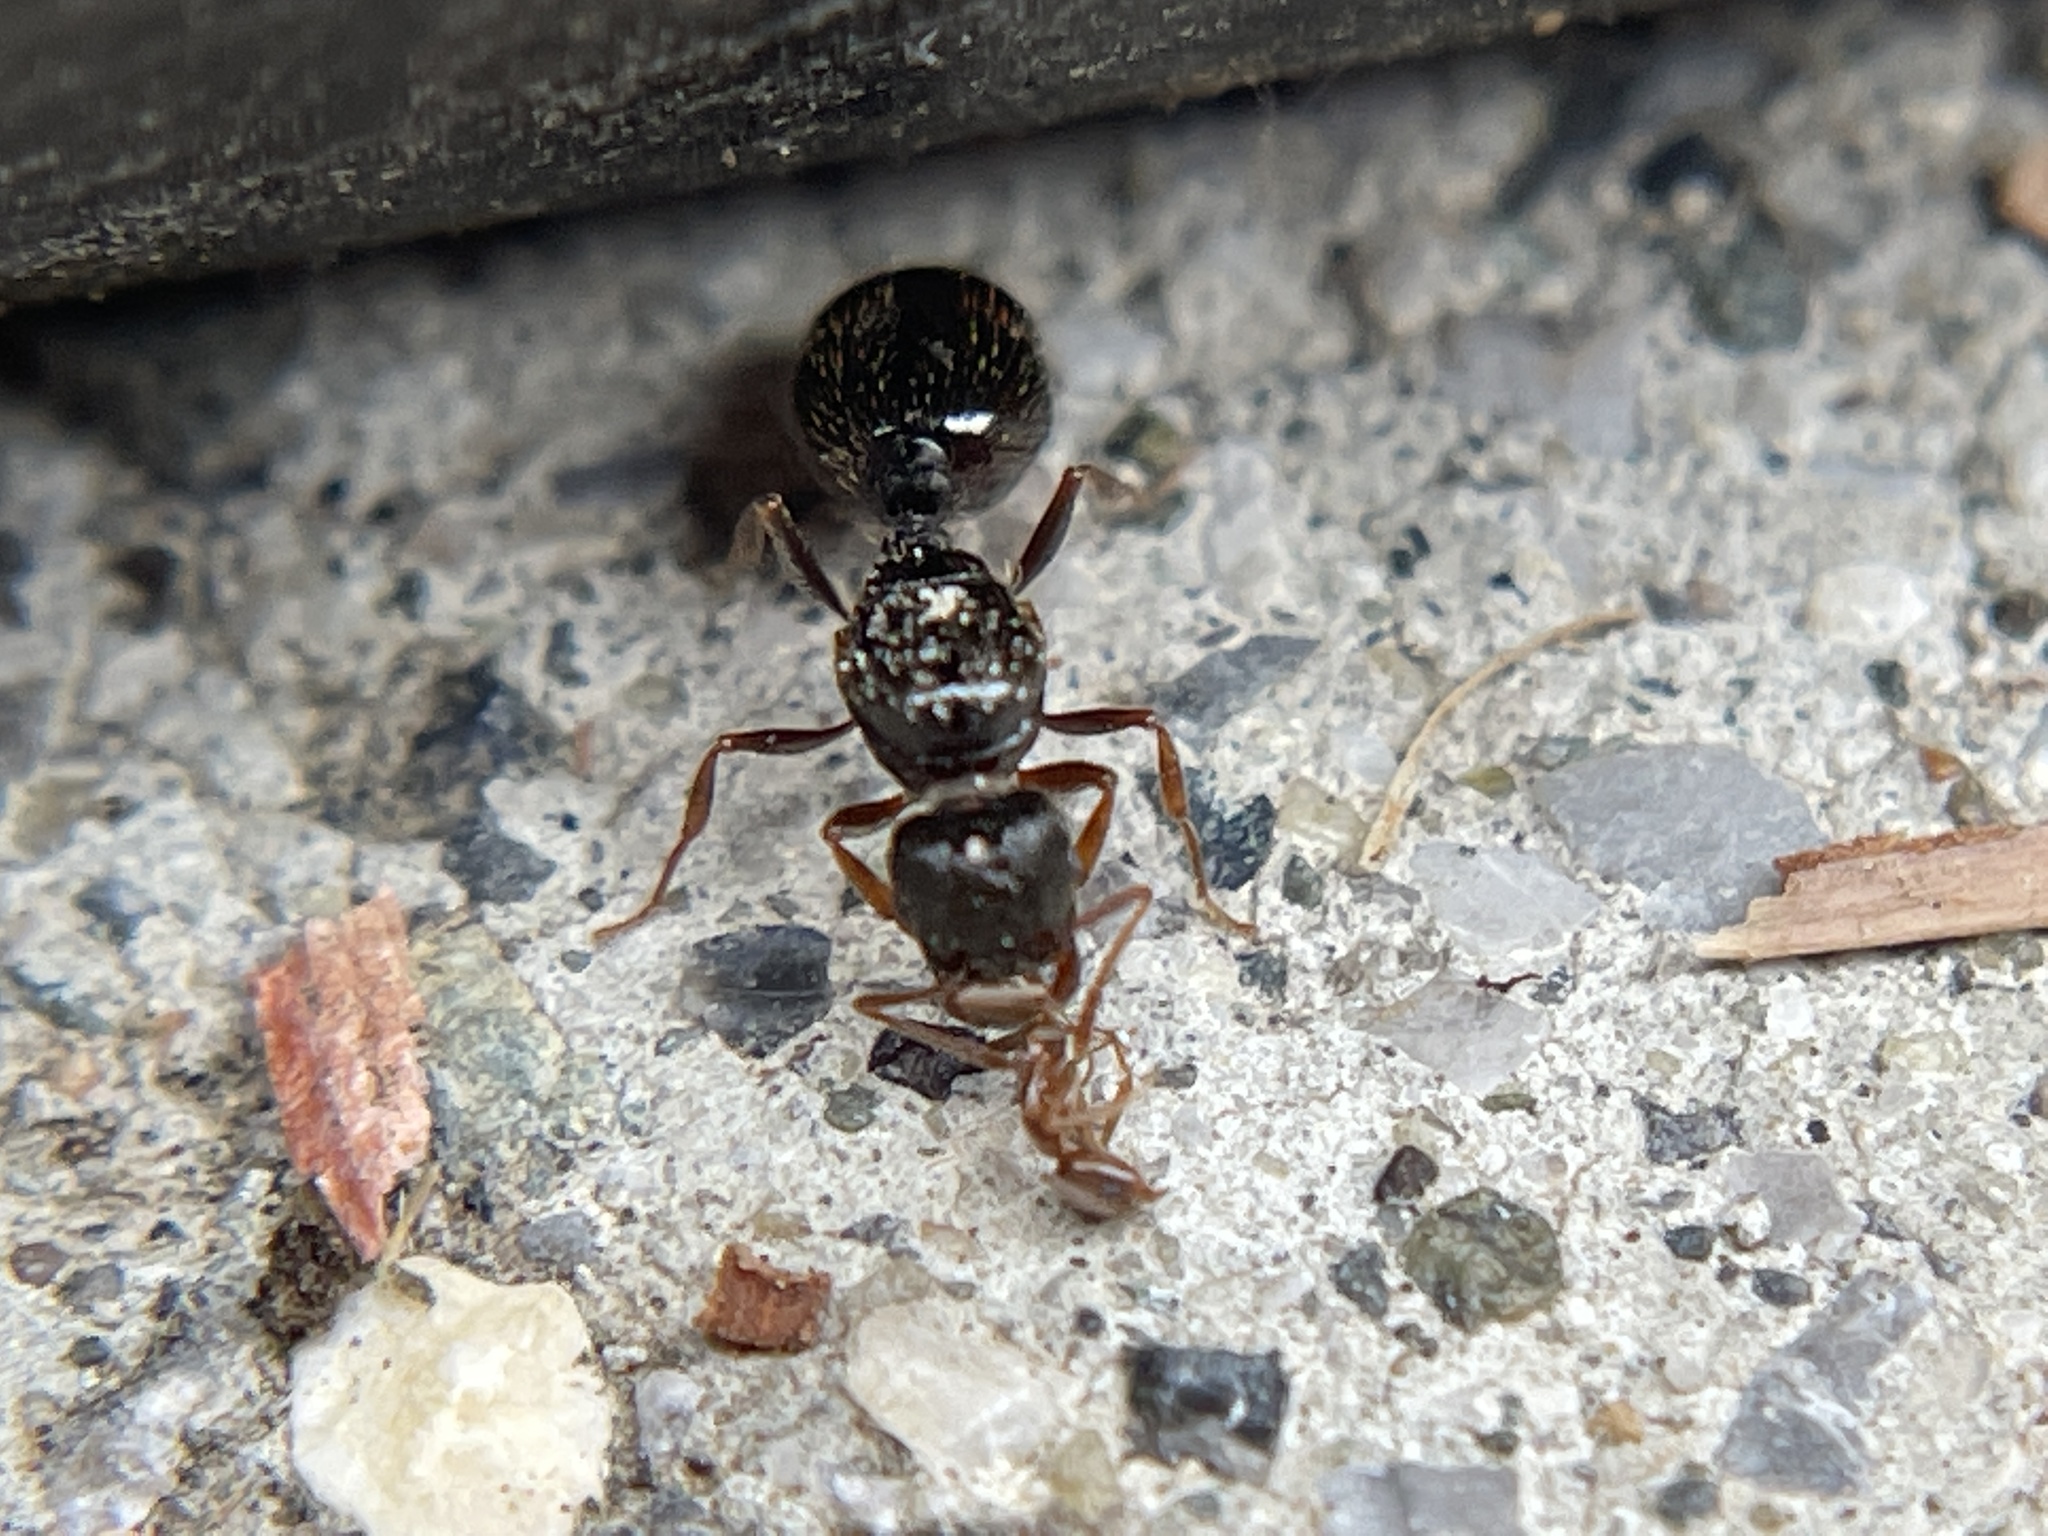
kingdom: Animalia
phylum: Arthropoda
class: Insecta
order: Hymenoptera
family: Formicidae
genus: Tetramorium
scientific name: Tetramorium immigrans
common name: Pavement ant
